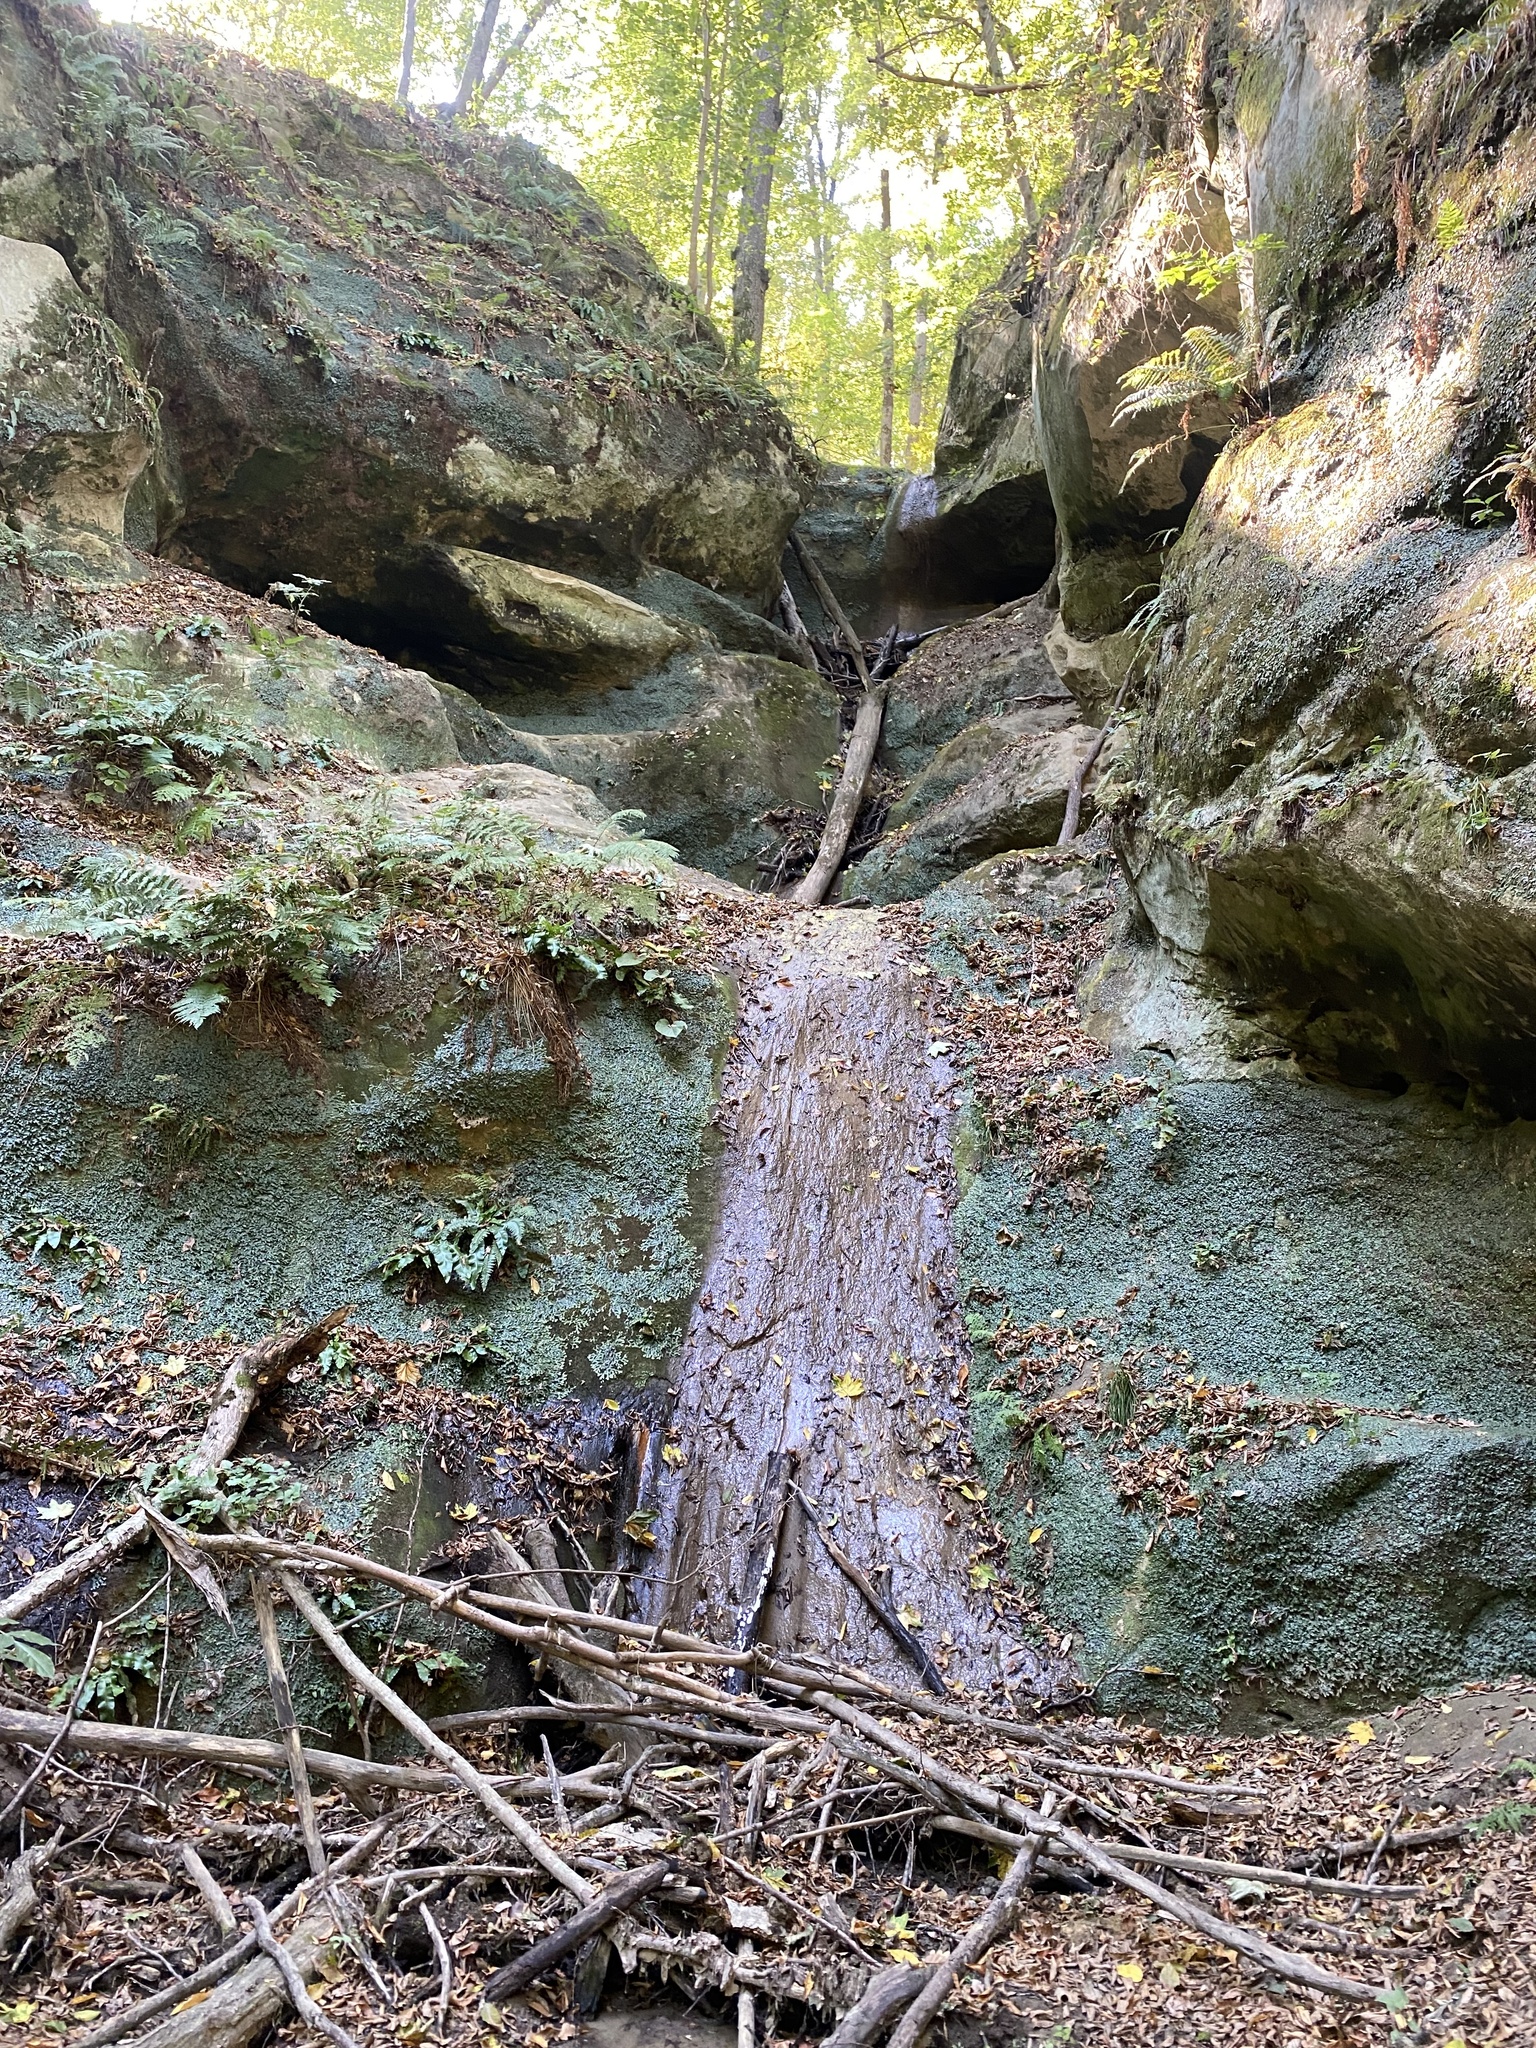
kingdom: Plantae
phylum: Tracheophyta
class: Polypodiopsida
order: Polypodiales
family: Aspleniaceae
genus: Asplenium
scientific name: Asplenium scolopendrium
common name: Hart's-tongue fern
